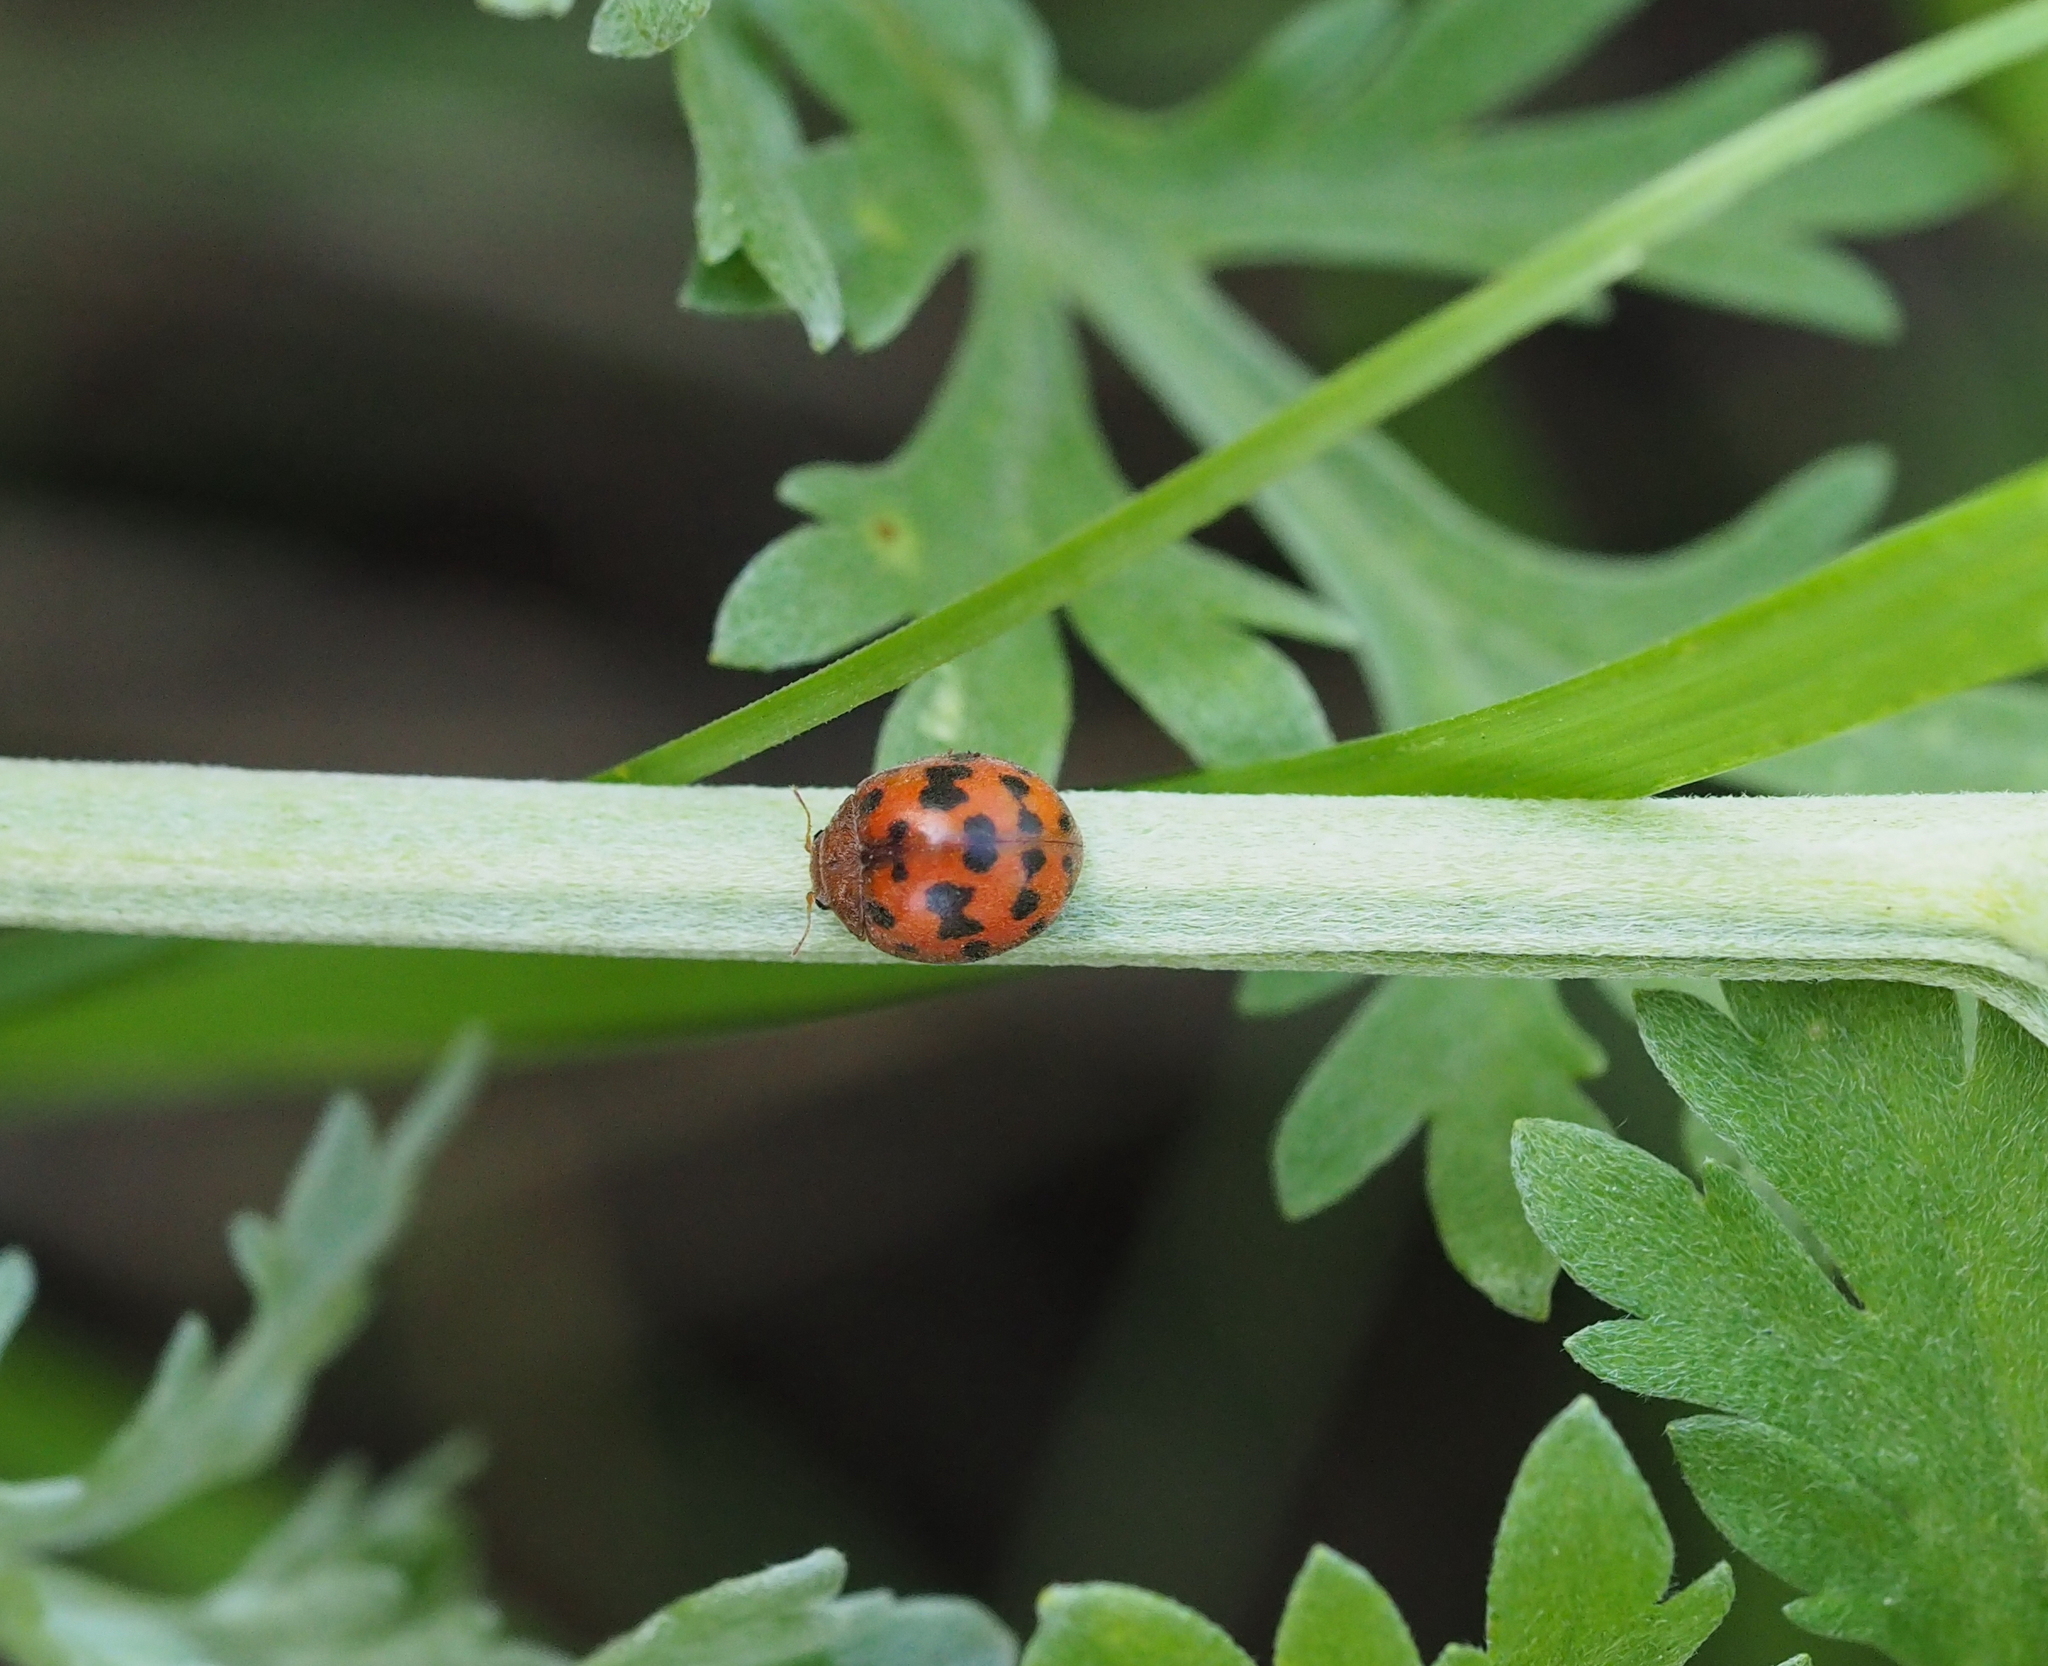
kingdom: Animalia
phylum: Arthropoda
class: Insecta
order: Coleoptera
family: Coccinellidae
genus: Subcoccinella
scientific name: Subcoccinella vigintiquatuorpunctata
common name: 24-spot ladybird
